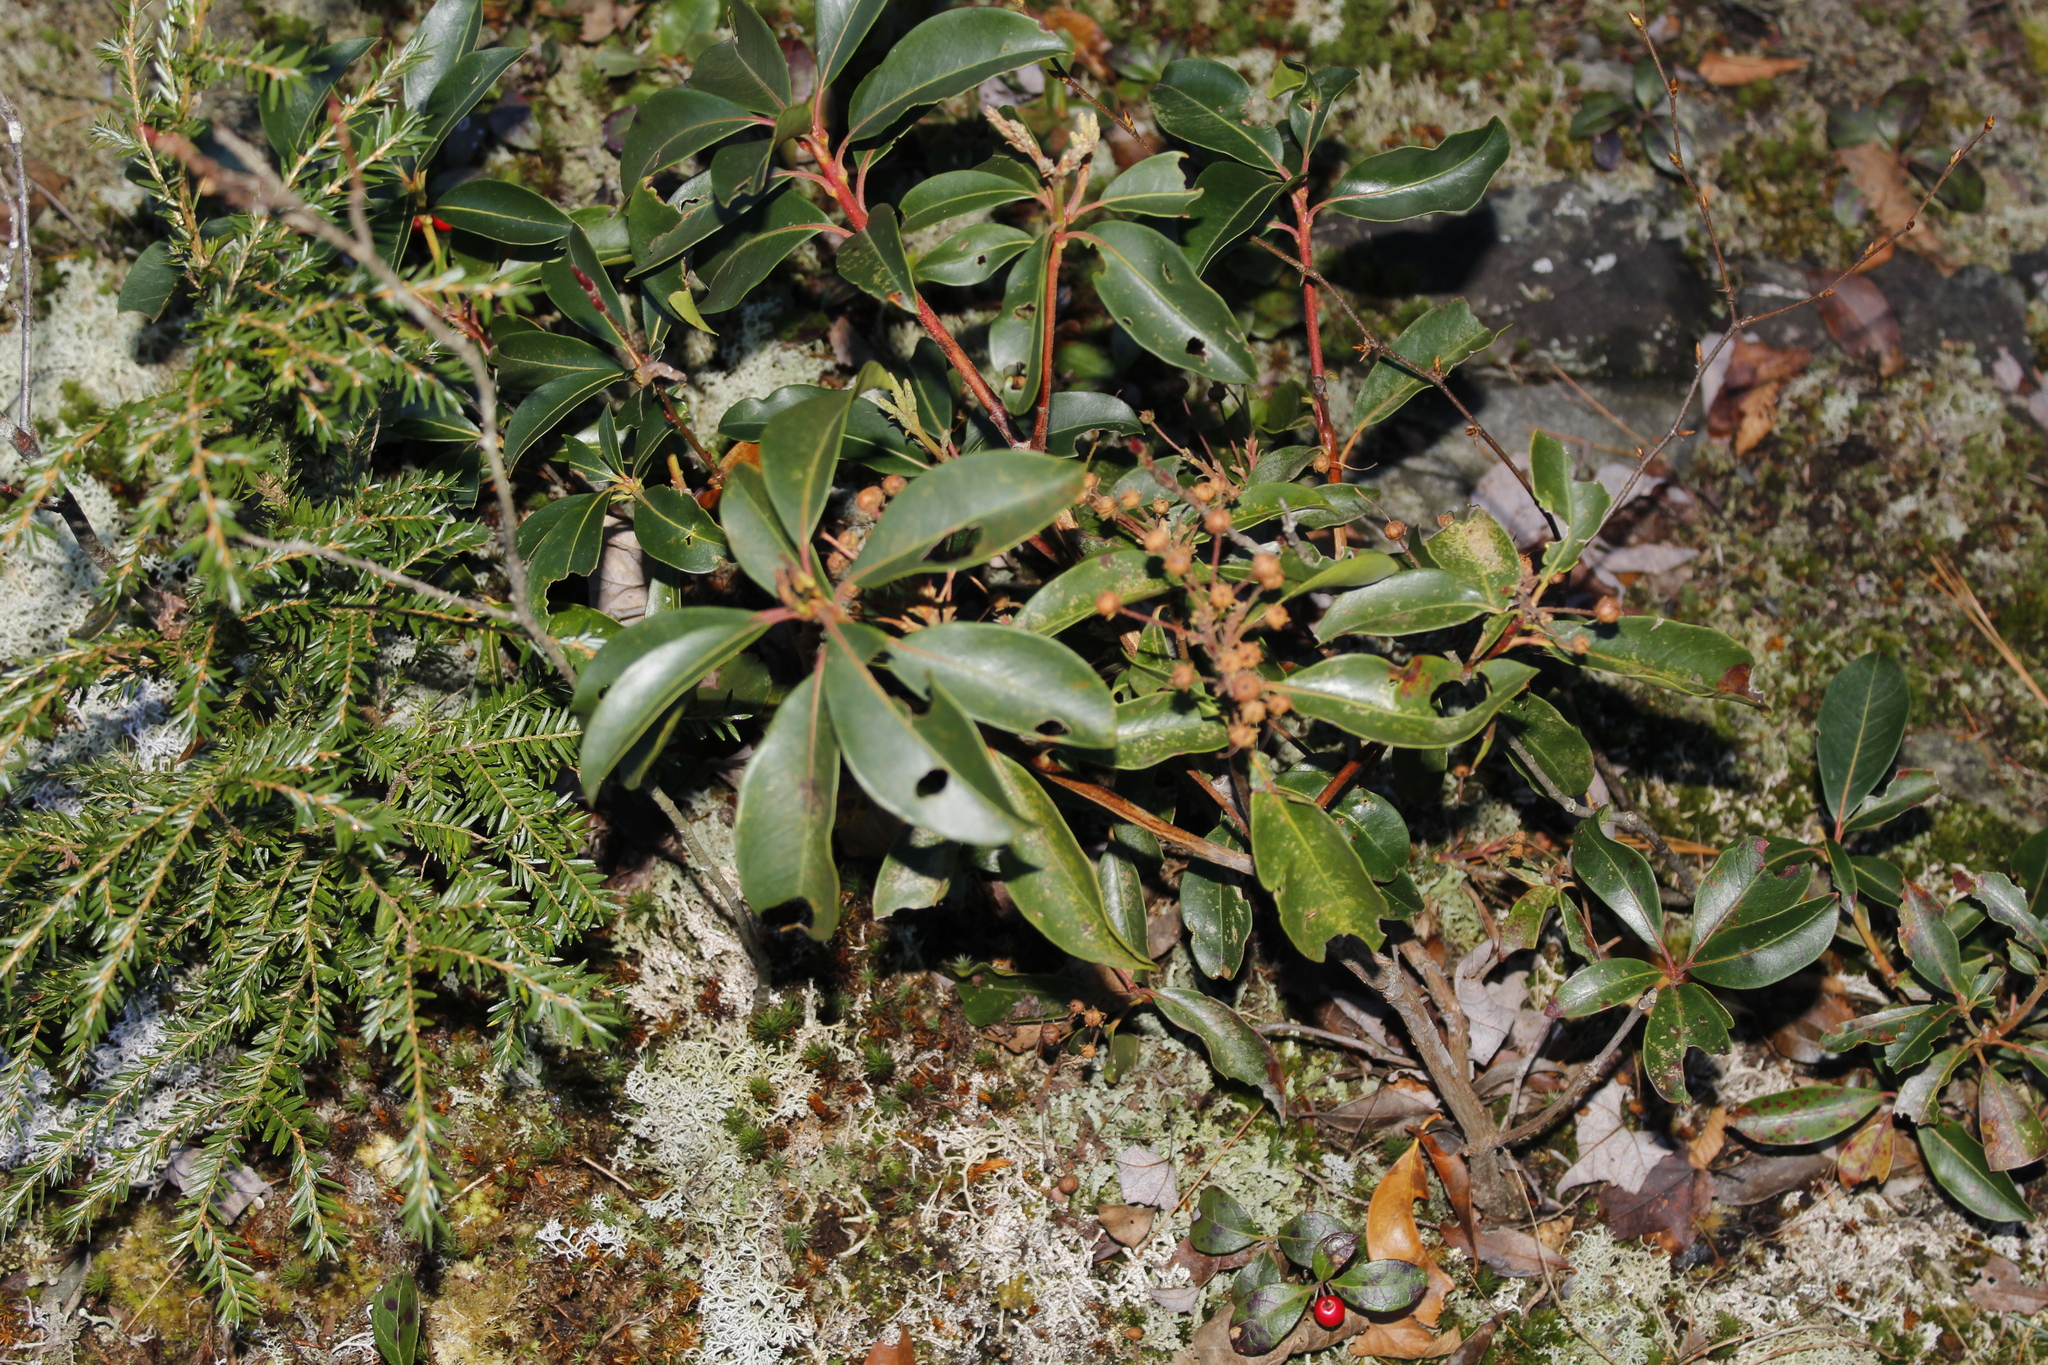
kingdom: Plantae
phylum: Tracheophyta
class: Magnoliopsida
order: Ericales
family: Ericaceae
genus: Kalmia
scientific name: Kalmia latifolia
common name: Mountain-laurel
